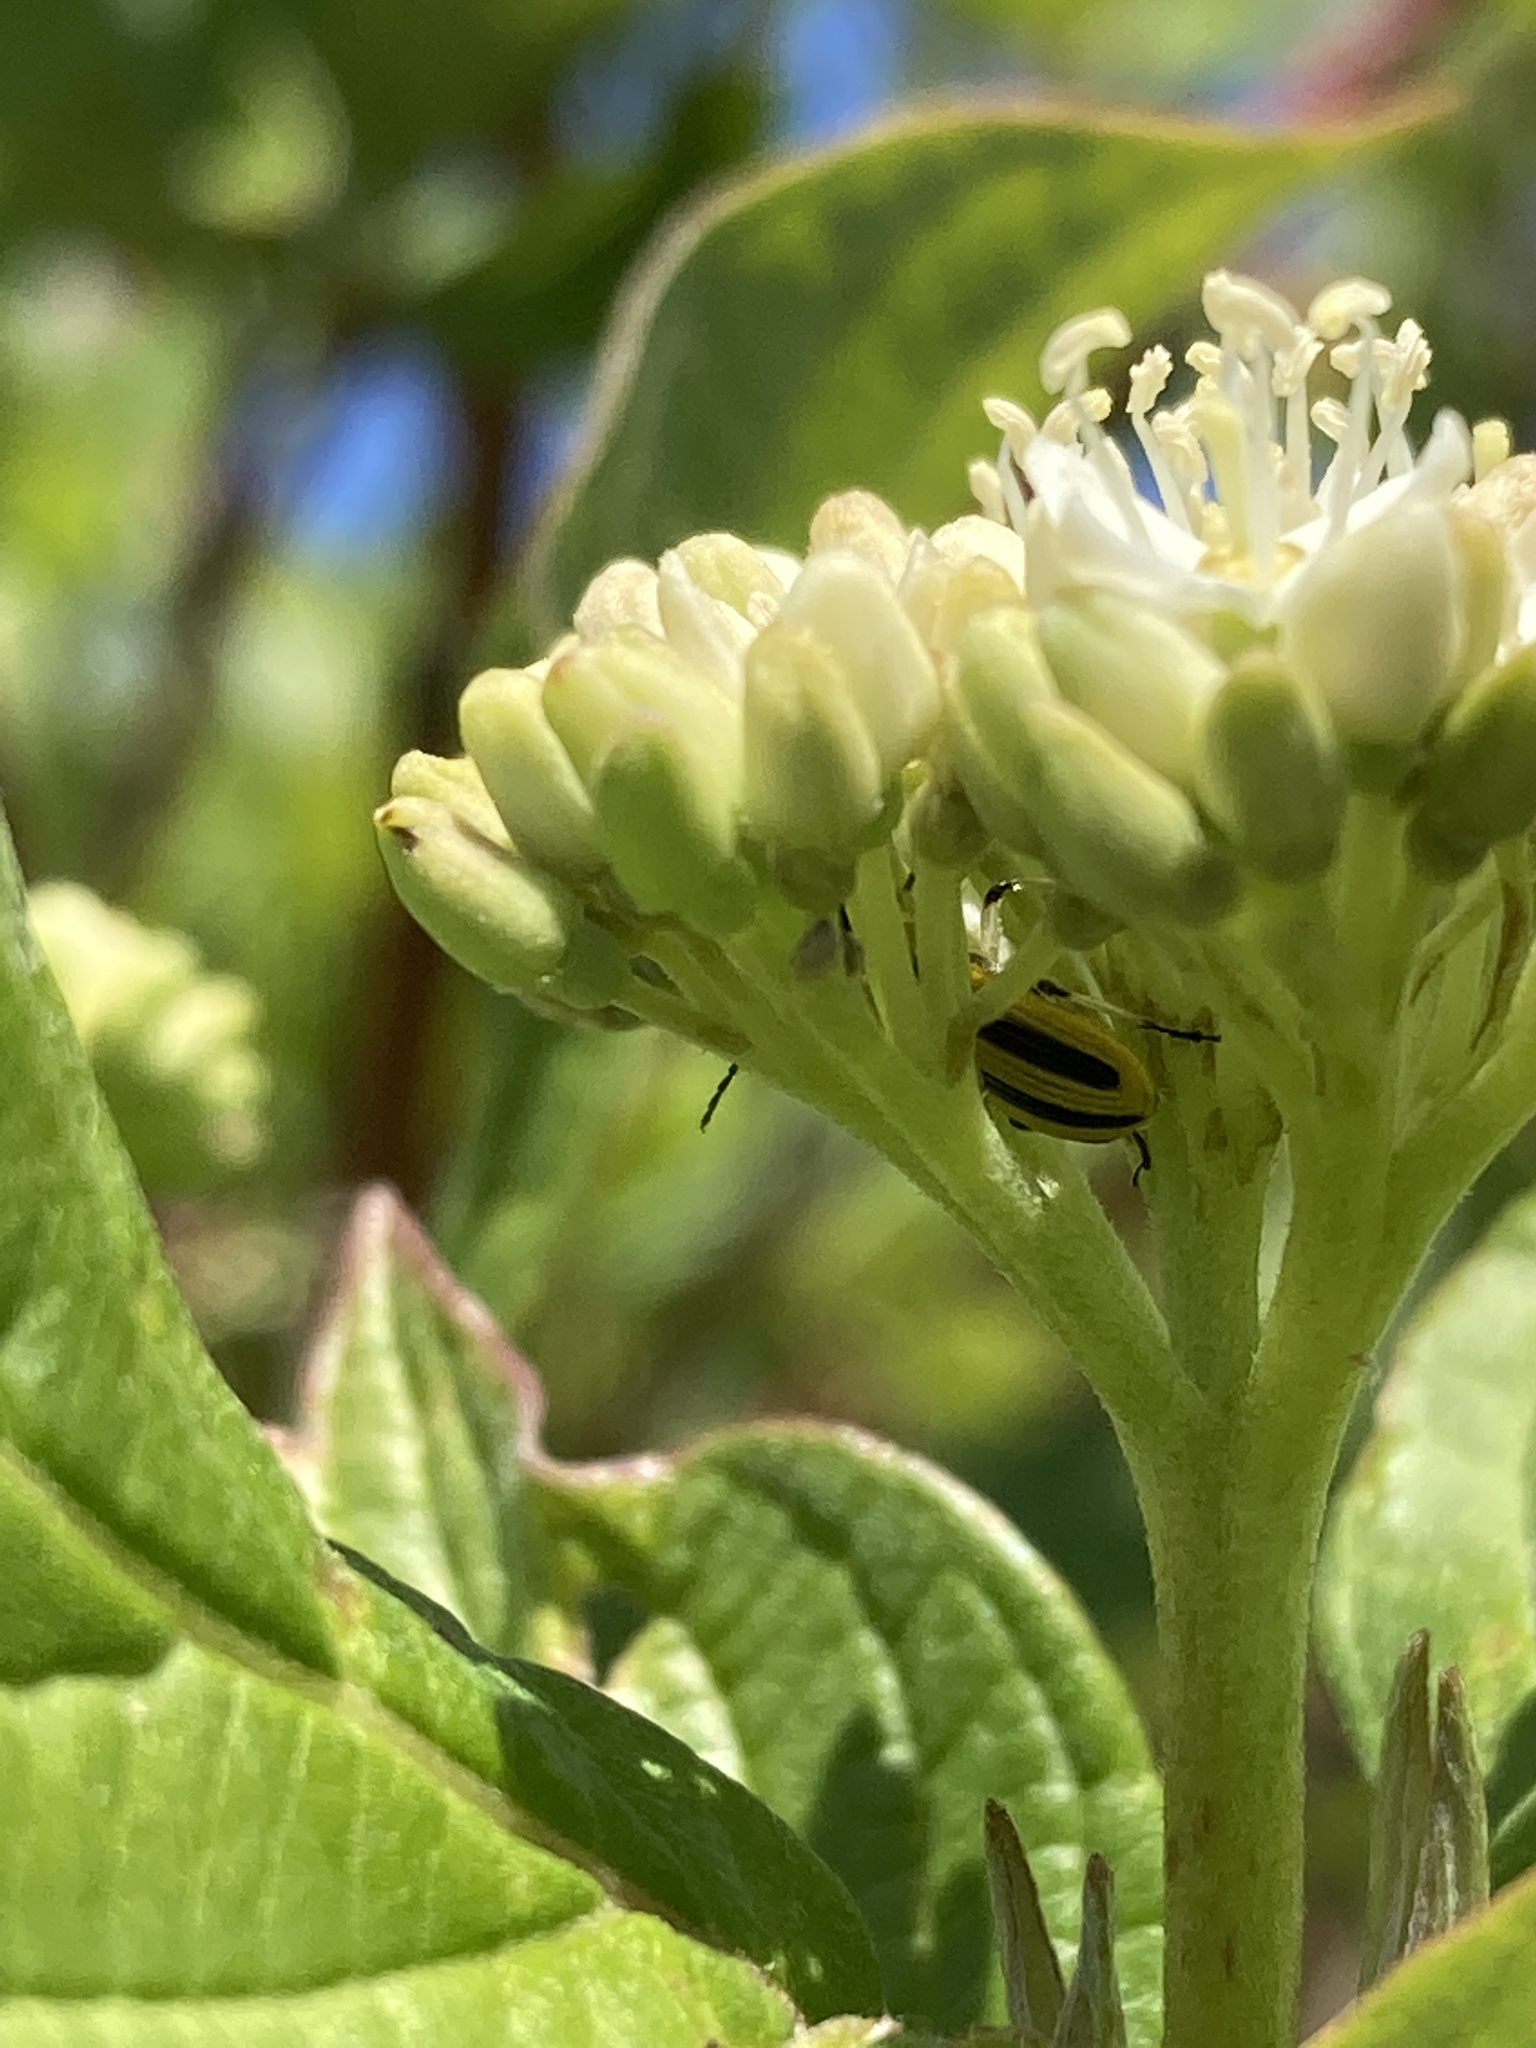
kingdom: Animalia
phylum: Arthropoda
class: Insecta
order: Coleoptera
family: Chrysomelidae
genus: Acalymma
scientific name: Acalymma vittatum
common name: Striped cucumber beetle
